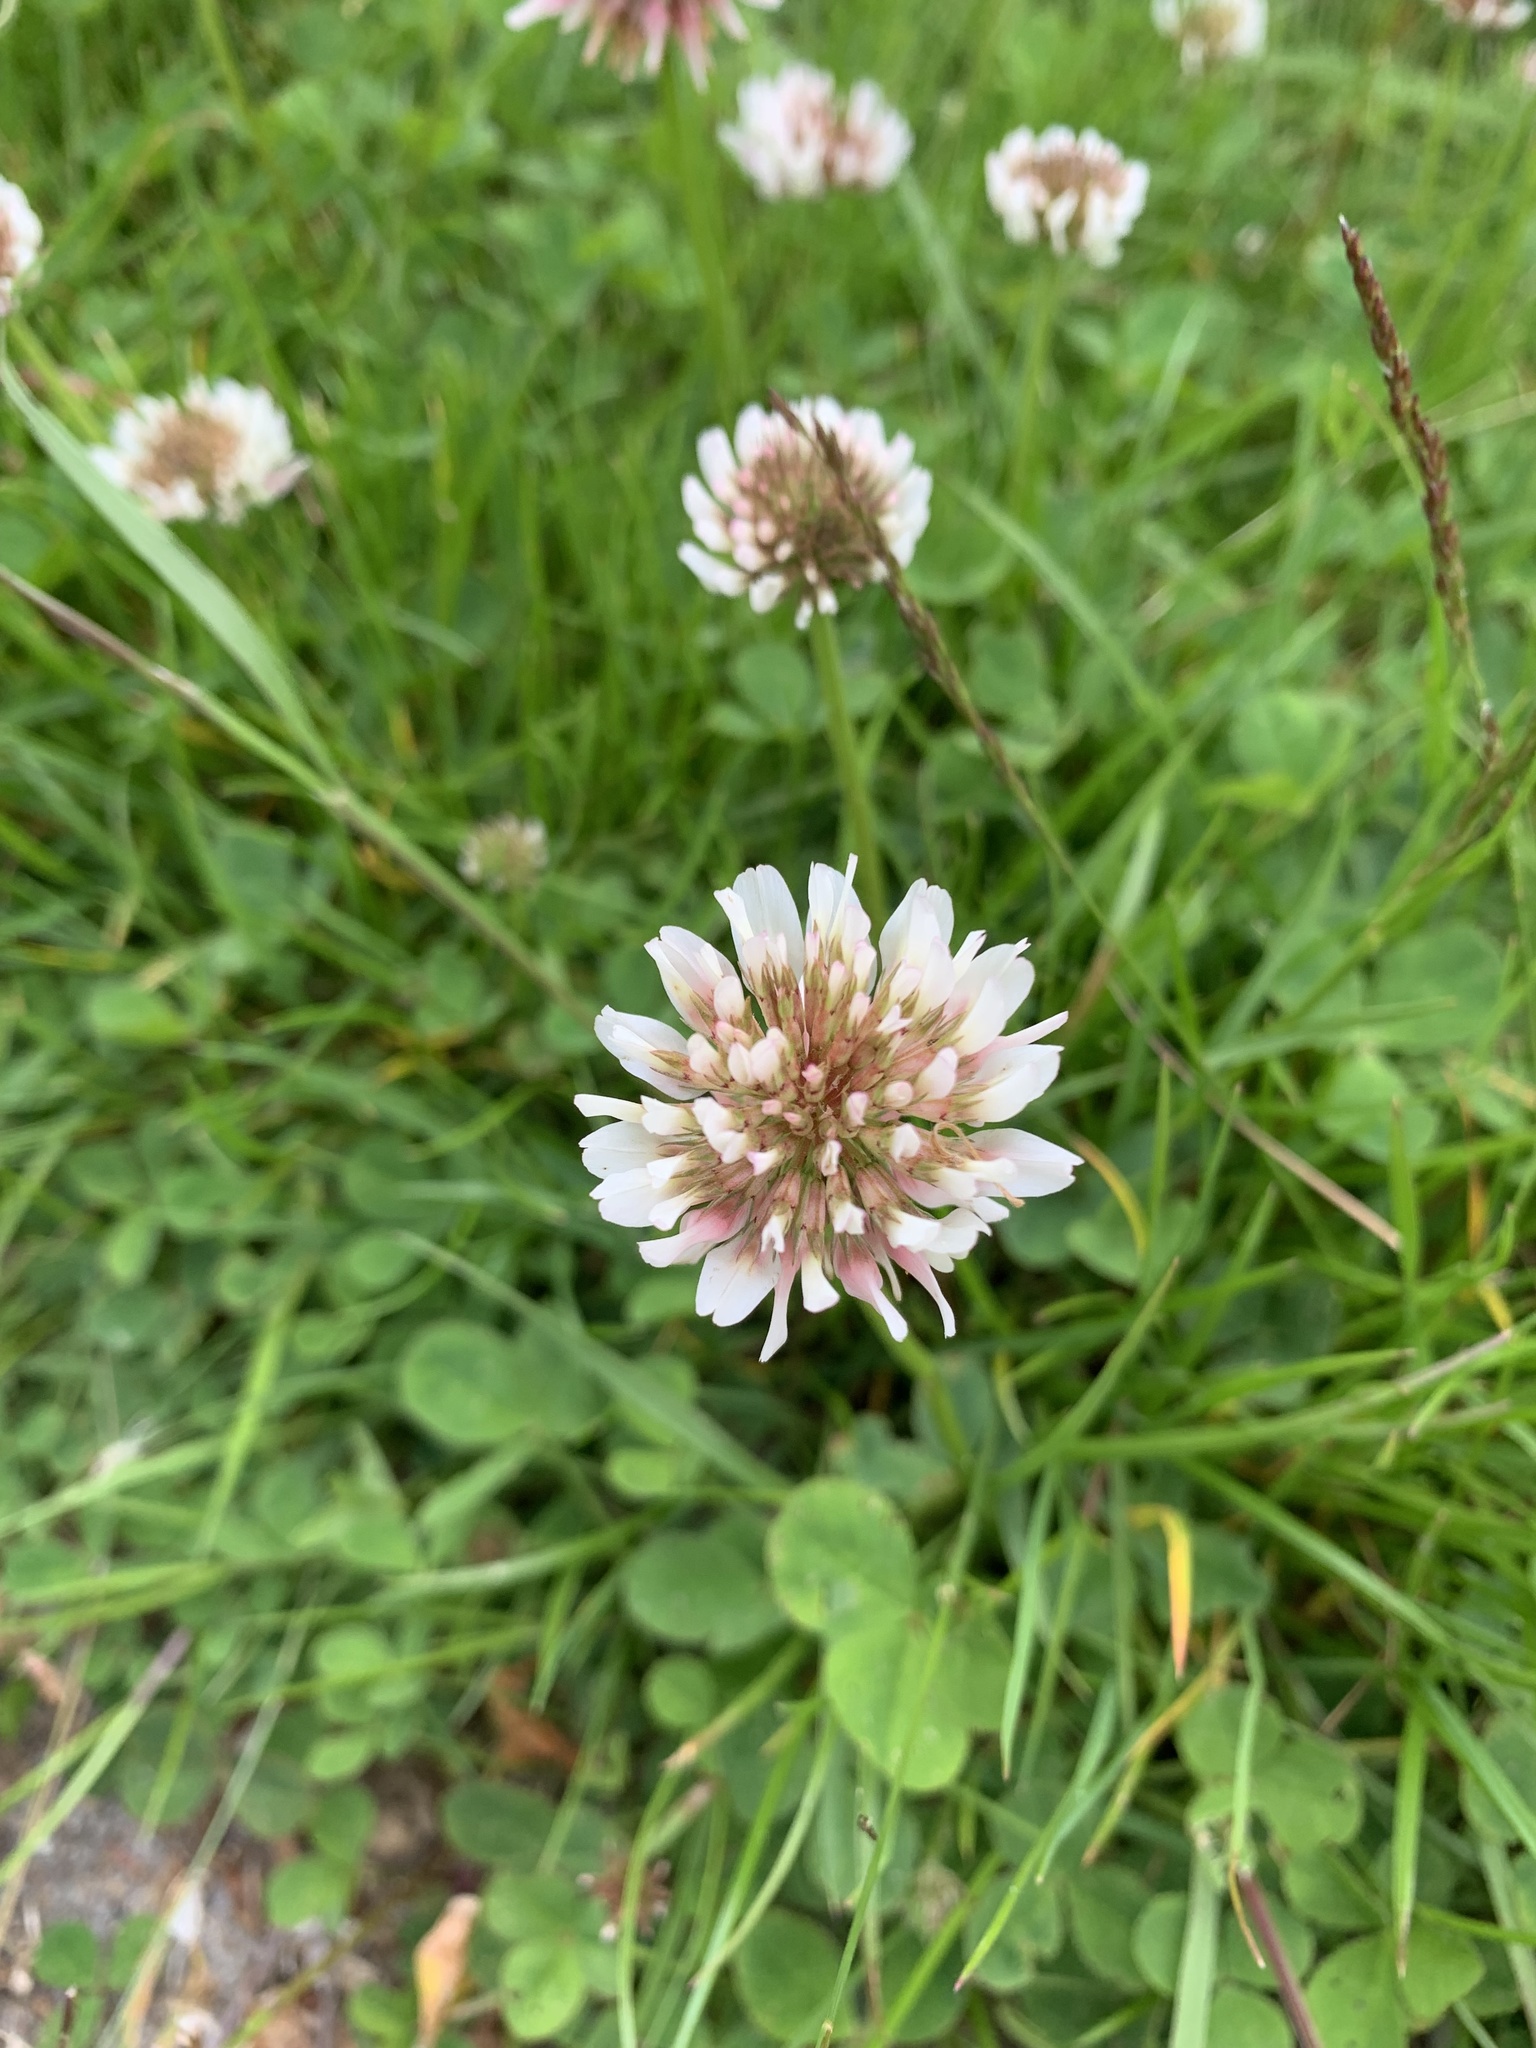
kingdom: Plantae
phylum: Tracheophyta
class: Magnoliopsida
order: Fabales
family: Fabaceae
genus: Trifolium
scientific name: Trifolium repens
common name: White clover
